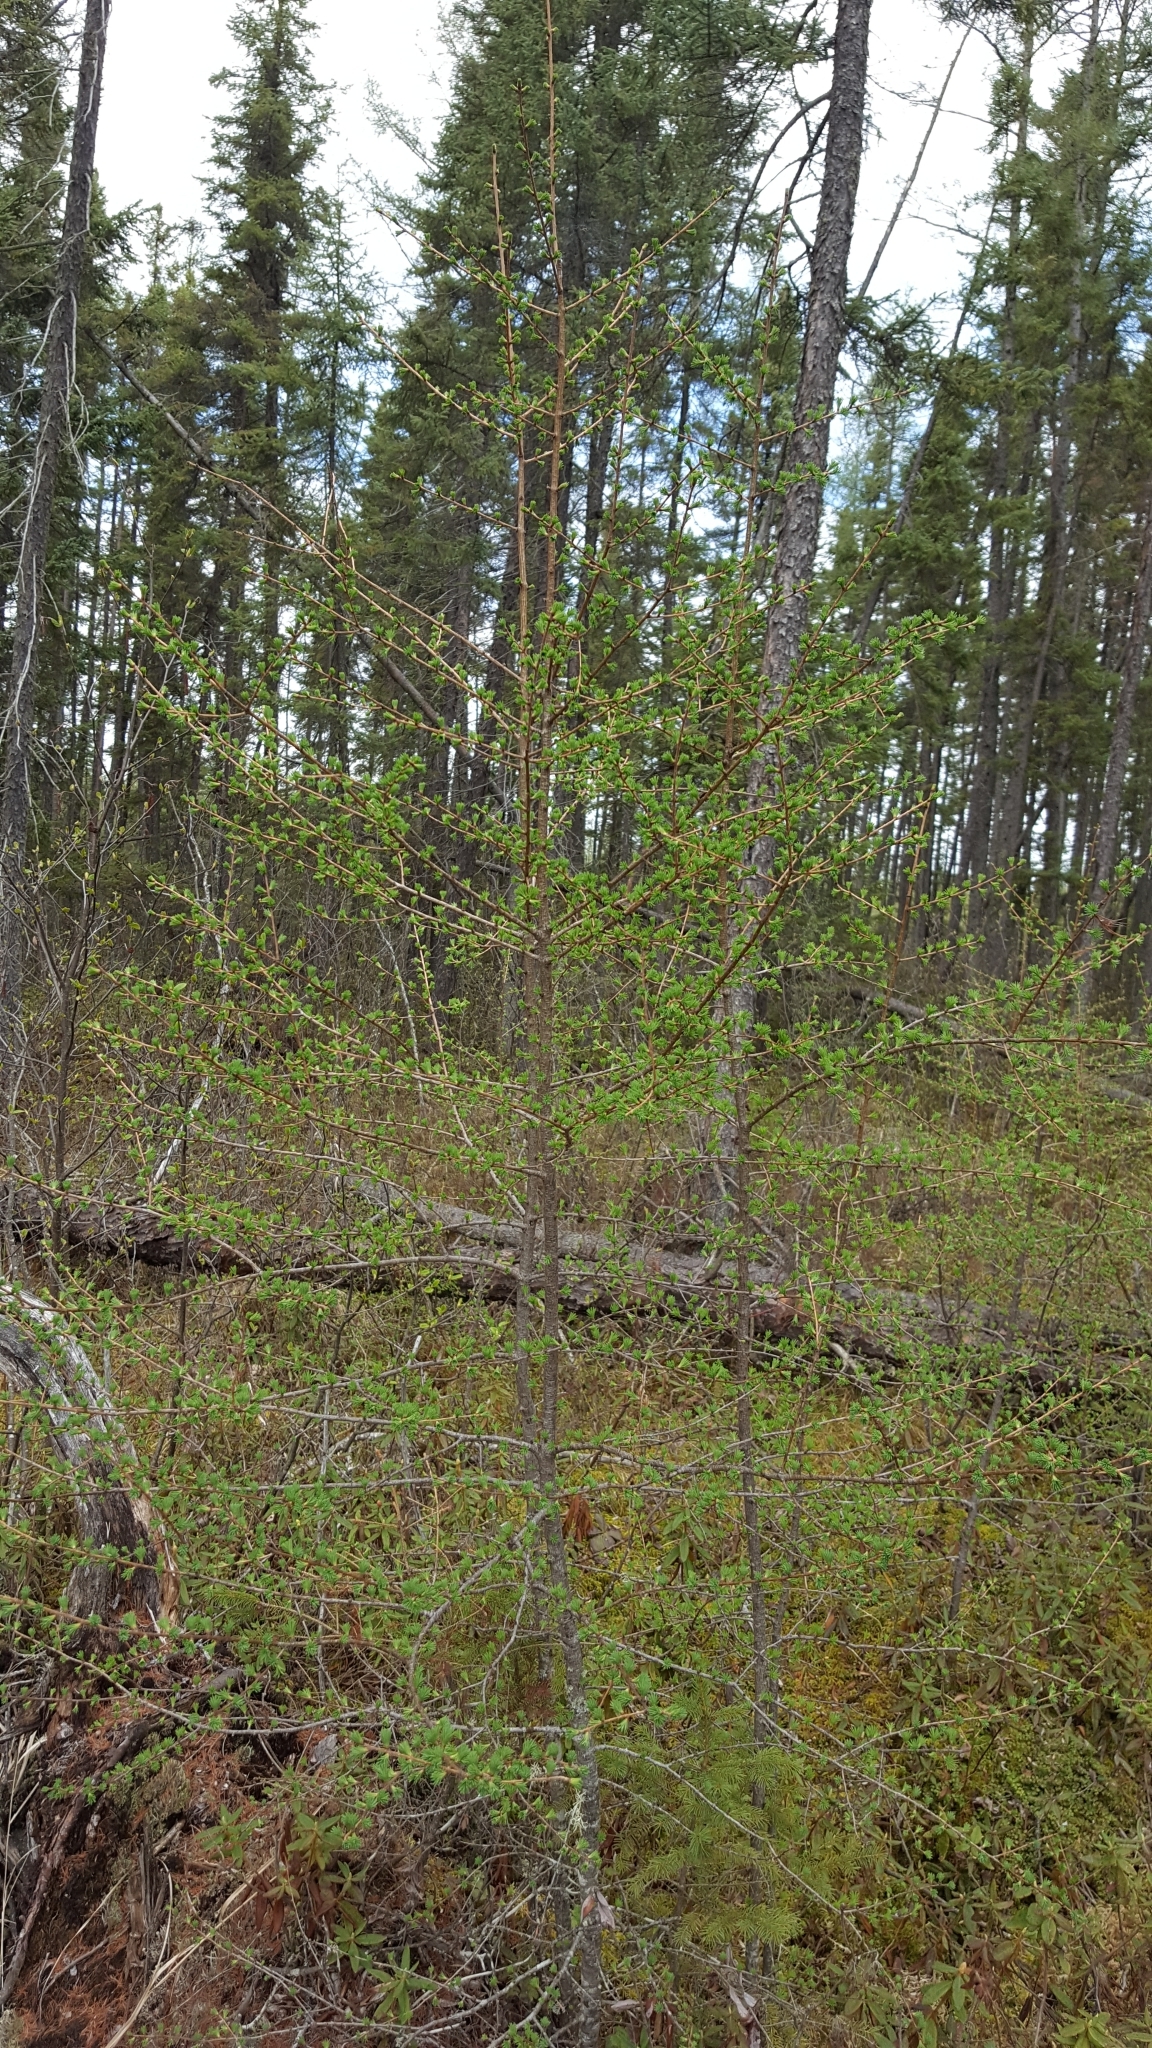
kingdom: Plantae
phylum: Tracheophyta
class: Pinopsida
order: Pinales
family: Pinaceae
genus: Larix
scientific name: Larix laricina
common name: American larch
